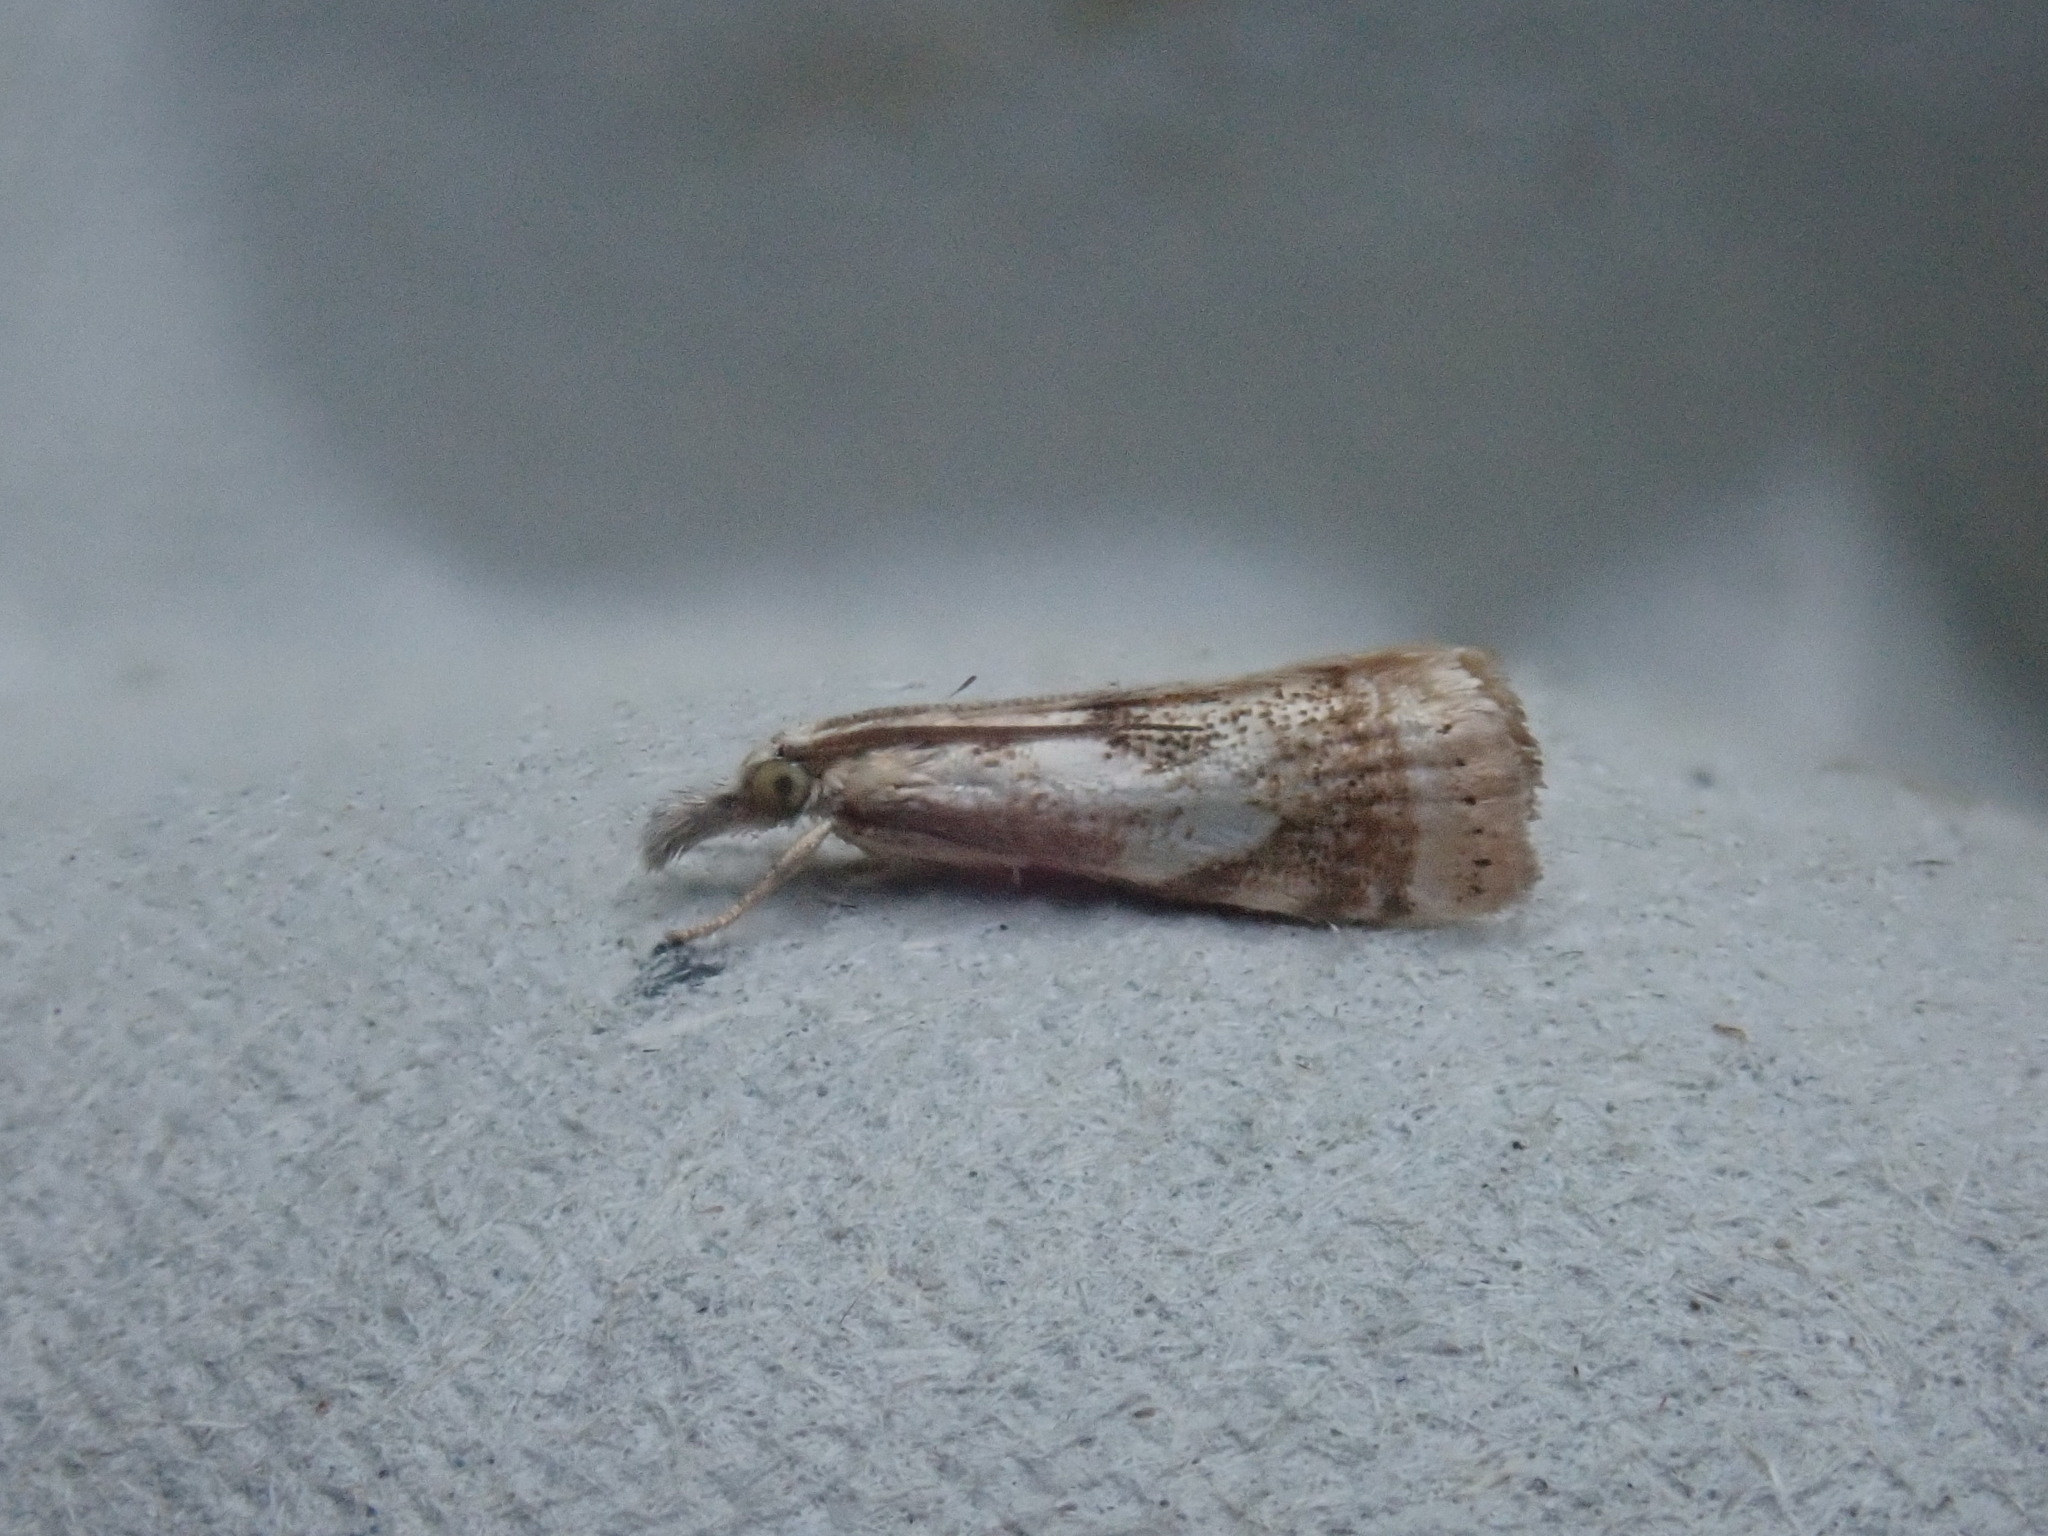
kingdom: Animalia
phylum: Arthropoda
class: Insecta
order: Lepidoptera
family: Crambidae
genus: Microcrambus
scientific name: Microcrambus elegans
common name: Elegant grass-veneer
